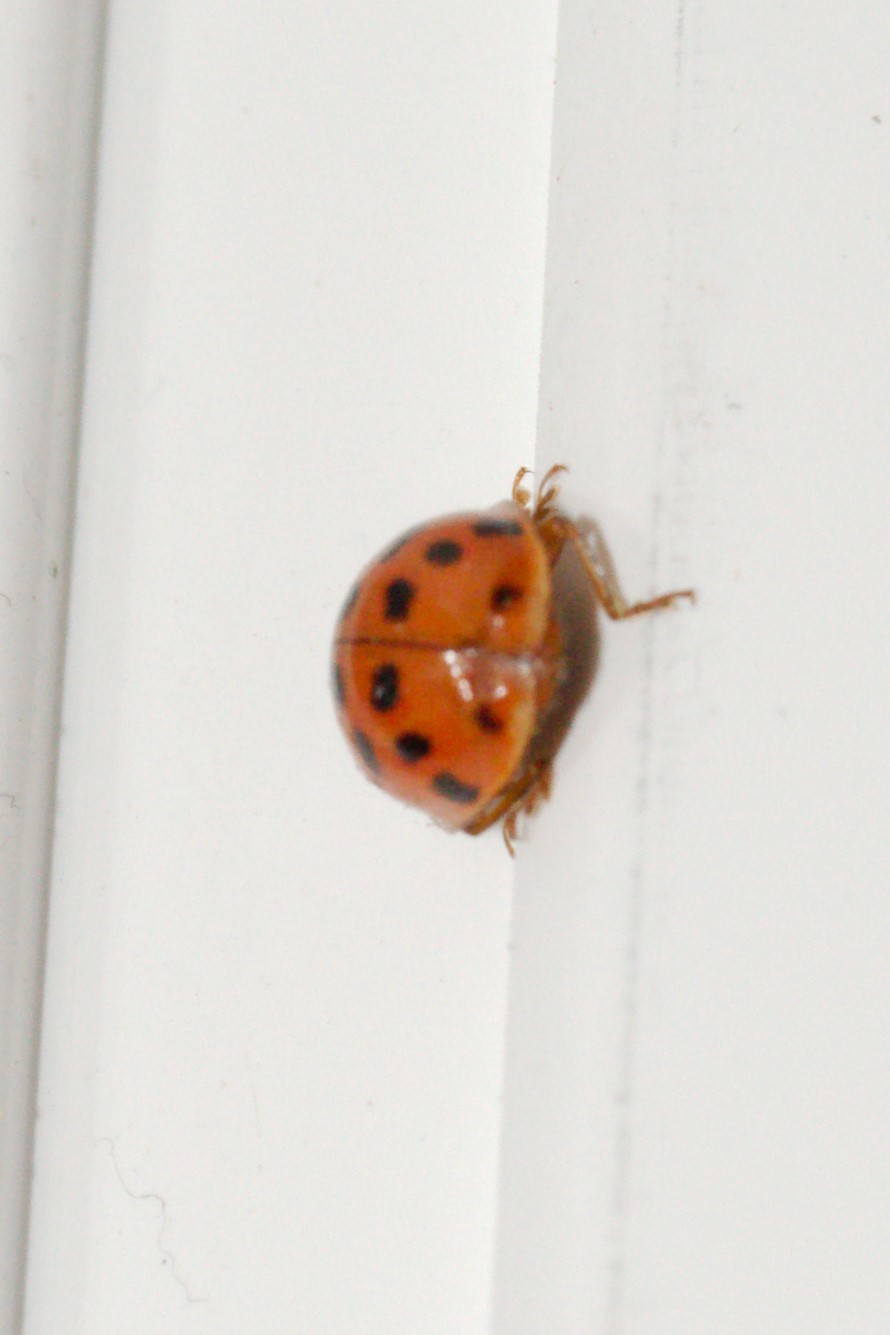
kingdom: Animalia
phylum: Arthropoda
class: Insecta
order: Coleoptera
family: Coccinellidae
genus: Harmonia
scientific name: Harmonia axyridis
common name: Harlequin ladybird
